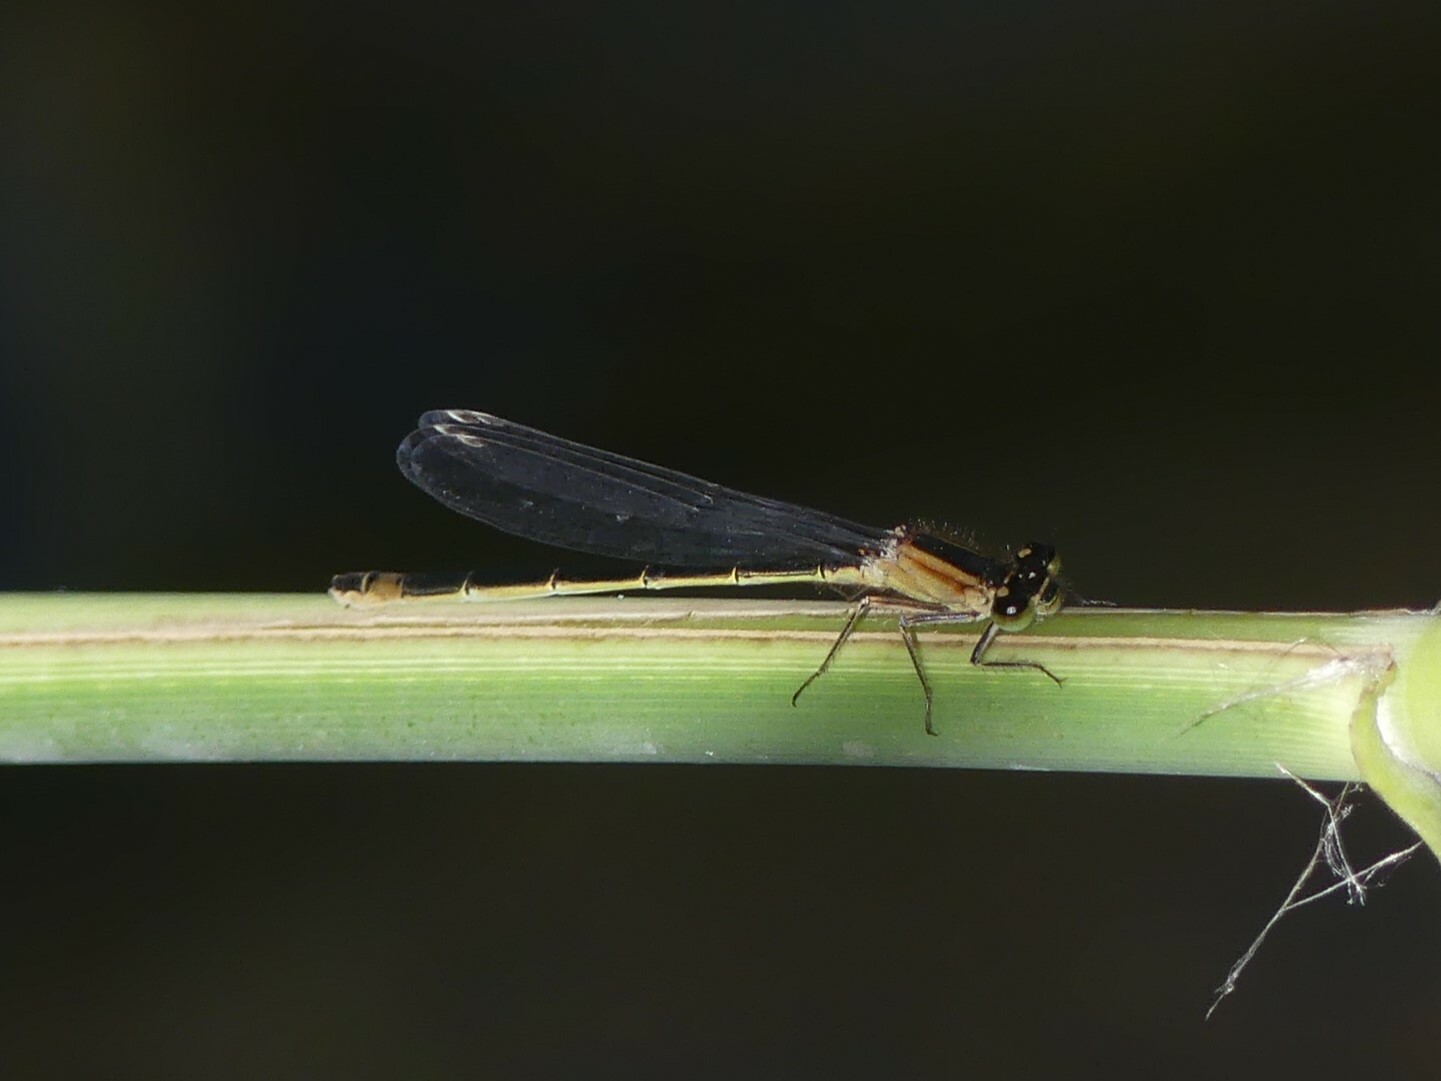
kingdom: Animalia
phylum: Arthropoda
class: Insecta
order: Odonata
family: Coenagrionidae
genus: Ischnura
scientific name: Ischnura elegans
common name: Blue-tailed damselfly
